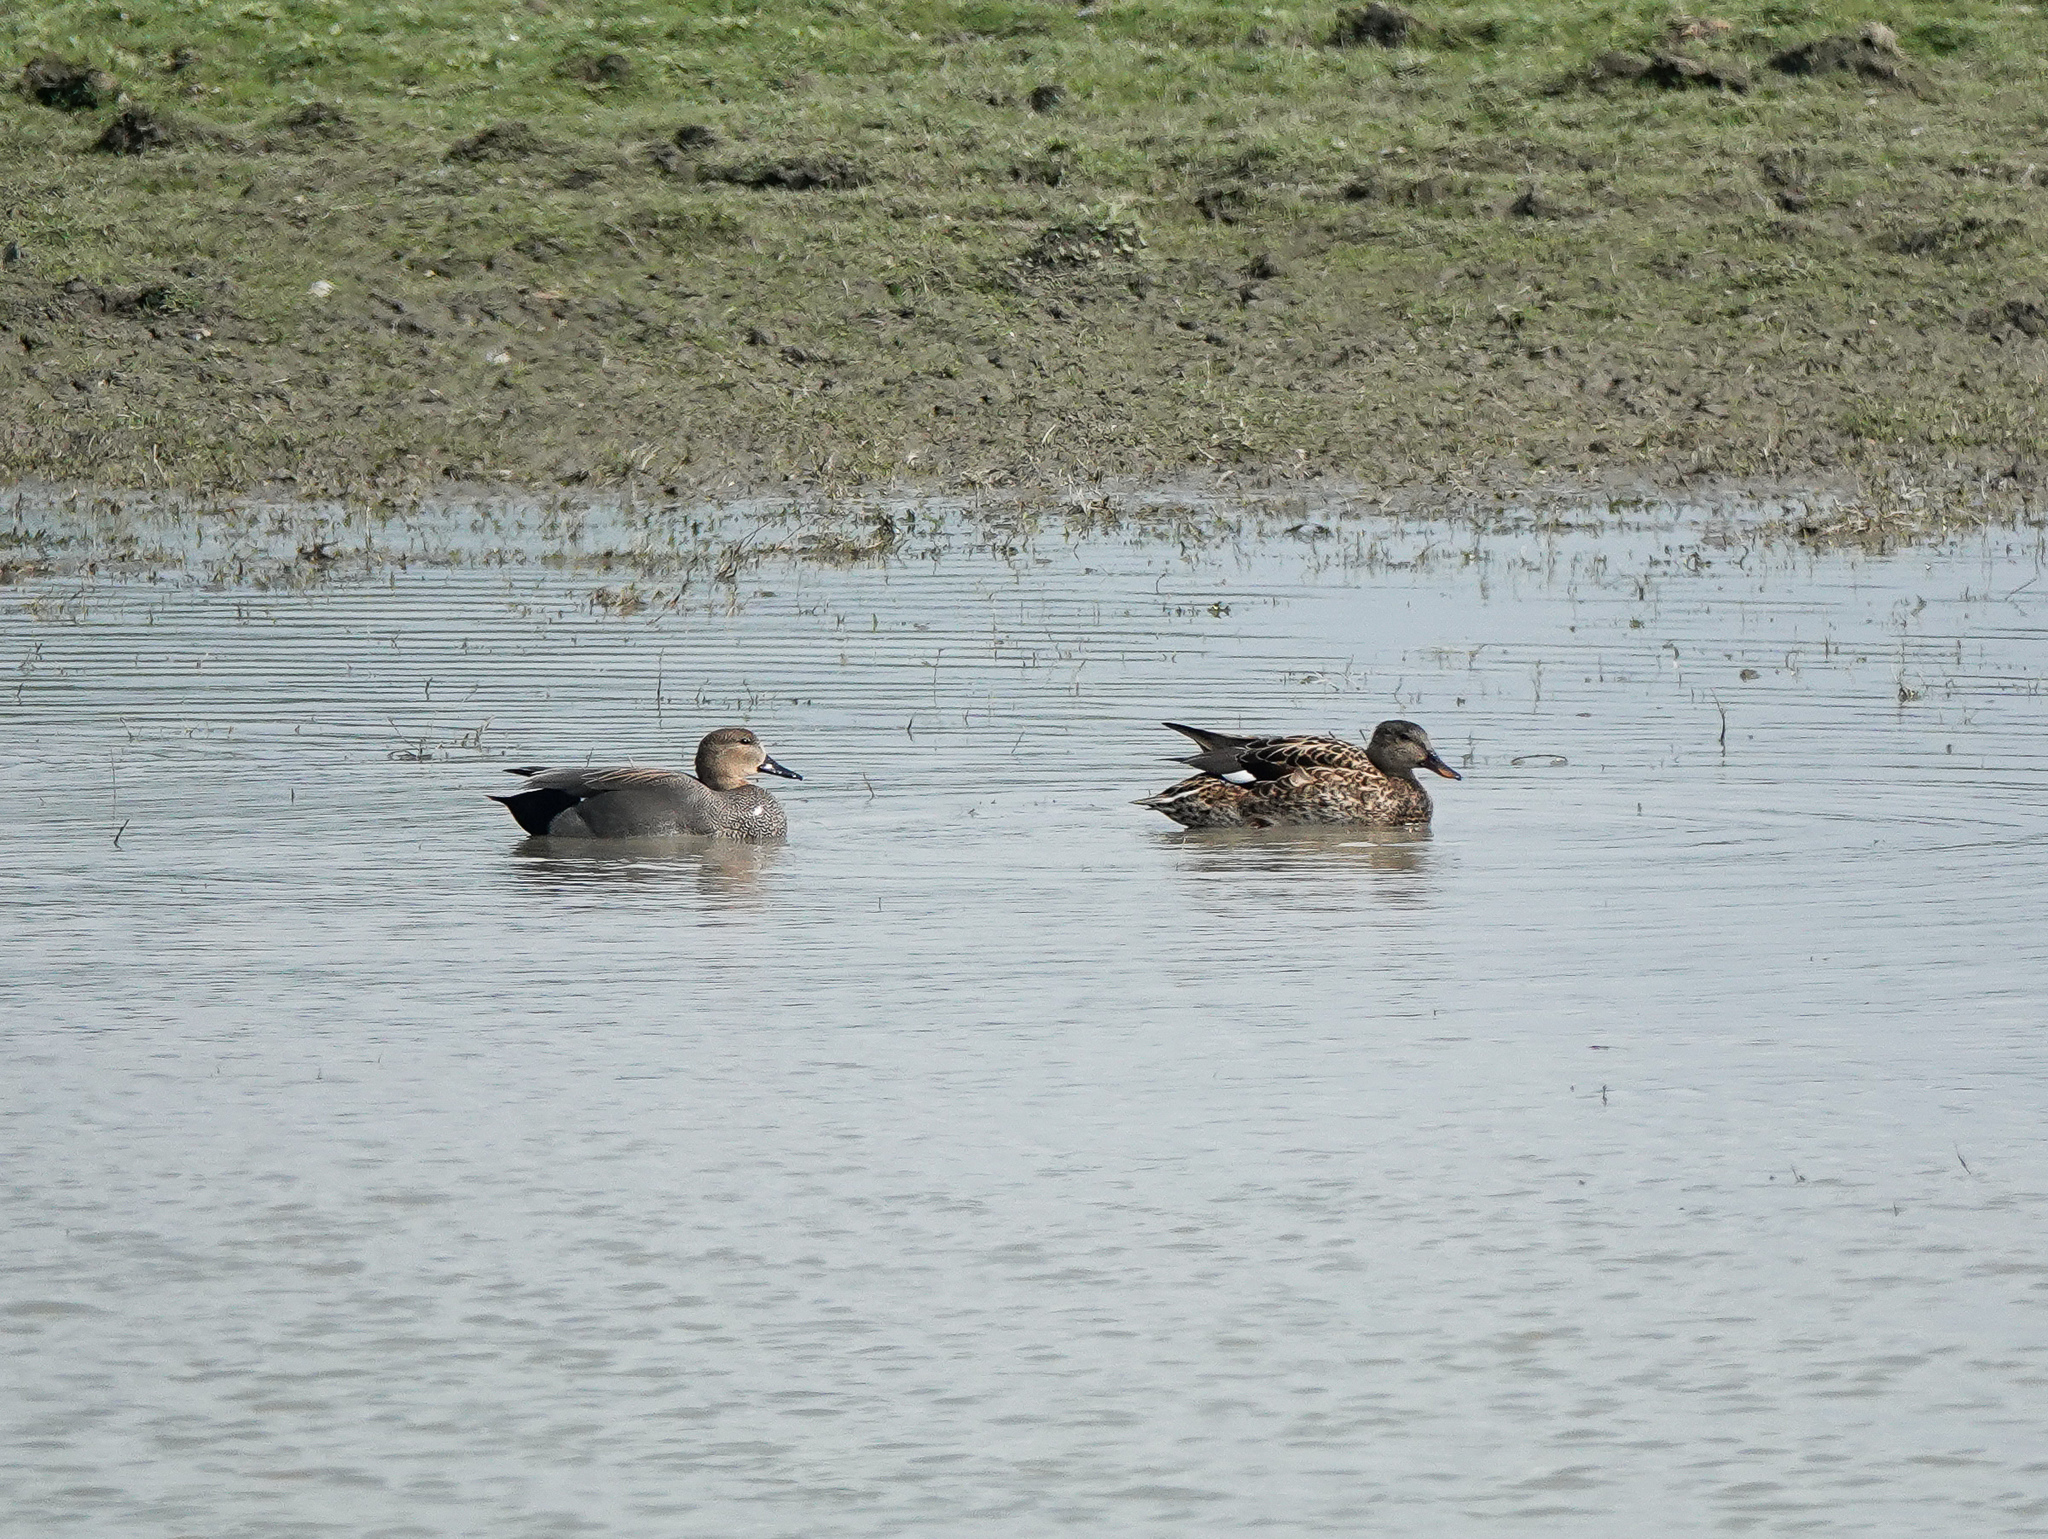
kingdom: Animalia
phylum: Chordata
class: Aves
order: Anseriformes
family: Anatidae
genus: Mareca
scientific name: Mareca strepera
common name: Gadwall
